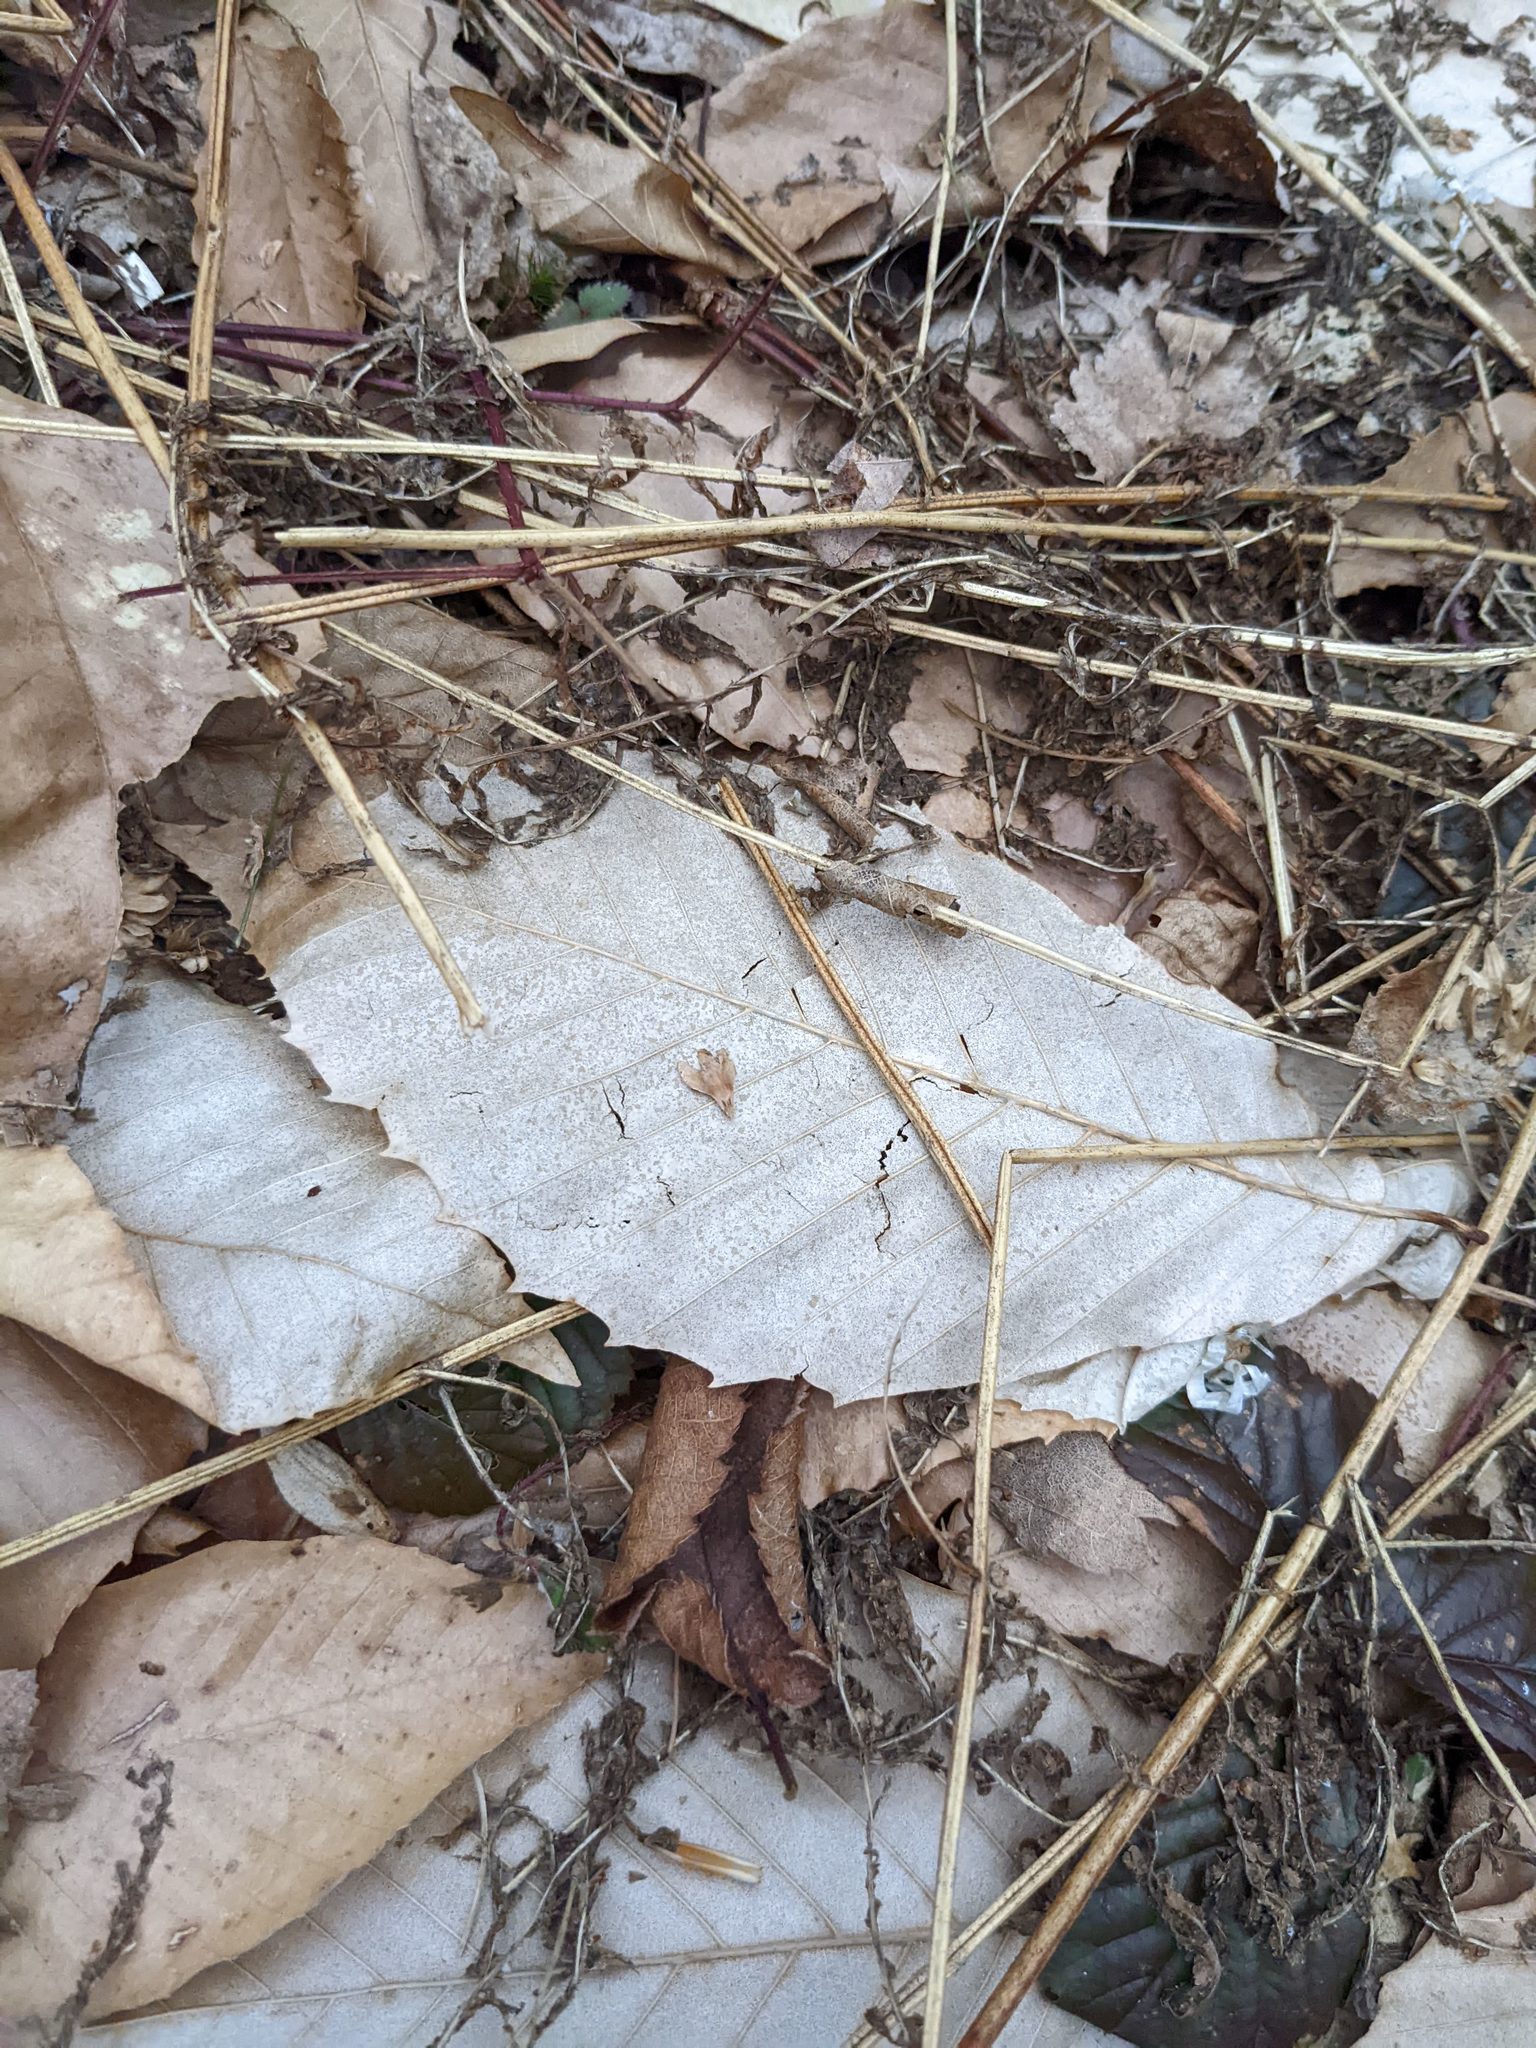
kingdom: Plantae
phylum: Tracheophyta
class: Magnoliopsida
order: Fagales
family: Fagaceae
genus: Fagus
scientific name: Fagus grandifolia
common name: American beech
